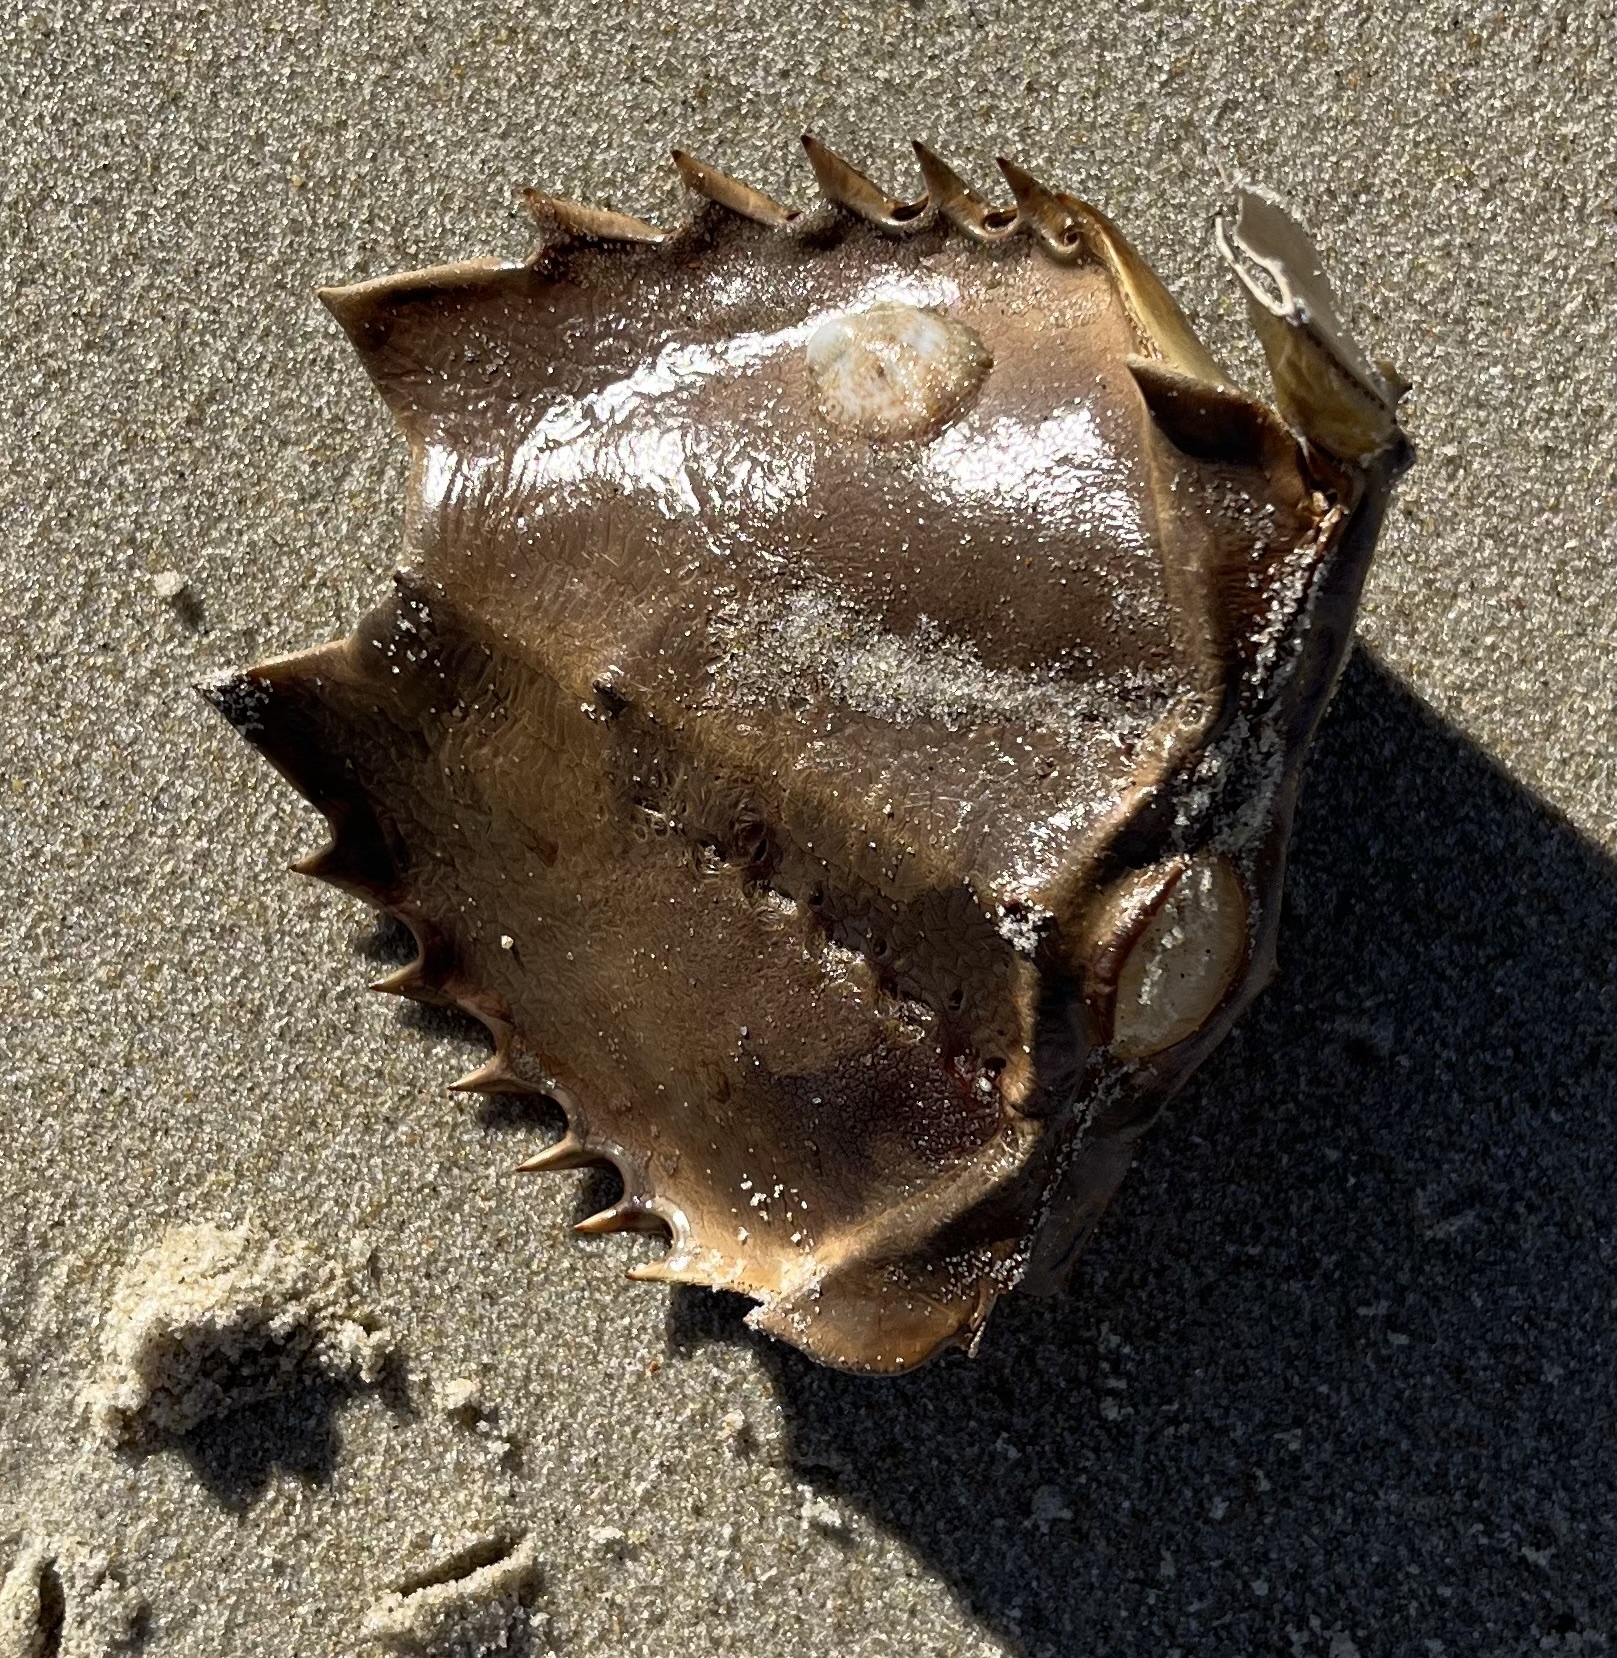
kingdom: Animalia
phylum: Arthropoda
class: Merostomata
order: Xiphosurida
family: Limulidae
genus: Limulus
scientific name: Limulus polyphemus
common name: Horseshoe crab
